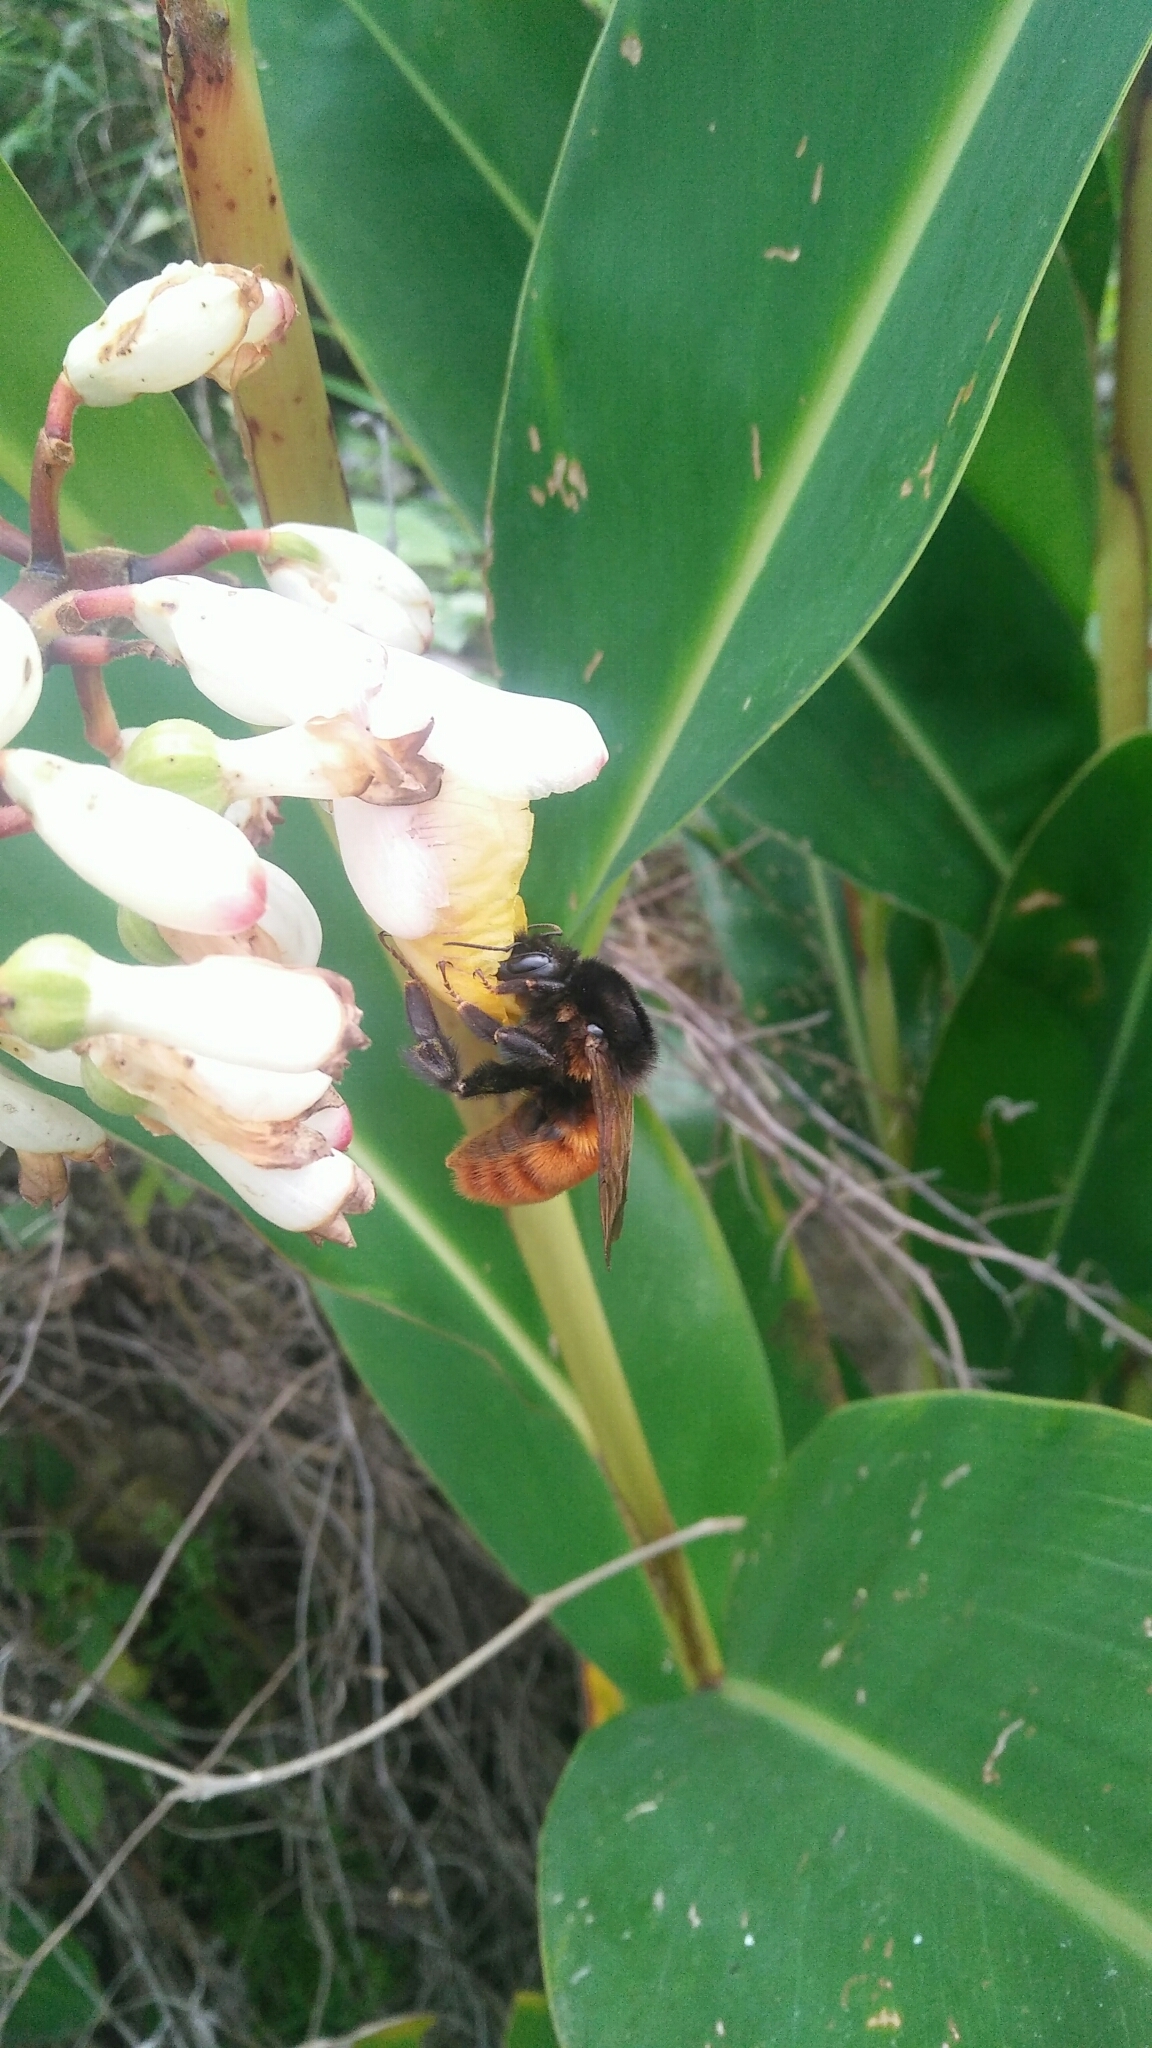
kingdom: Animalia
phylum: Arthropoda
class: Insecta
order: Hymenoptera
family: Apidae
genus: Bombus
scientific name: Bombus bicoloratus
